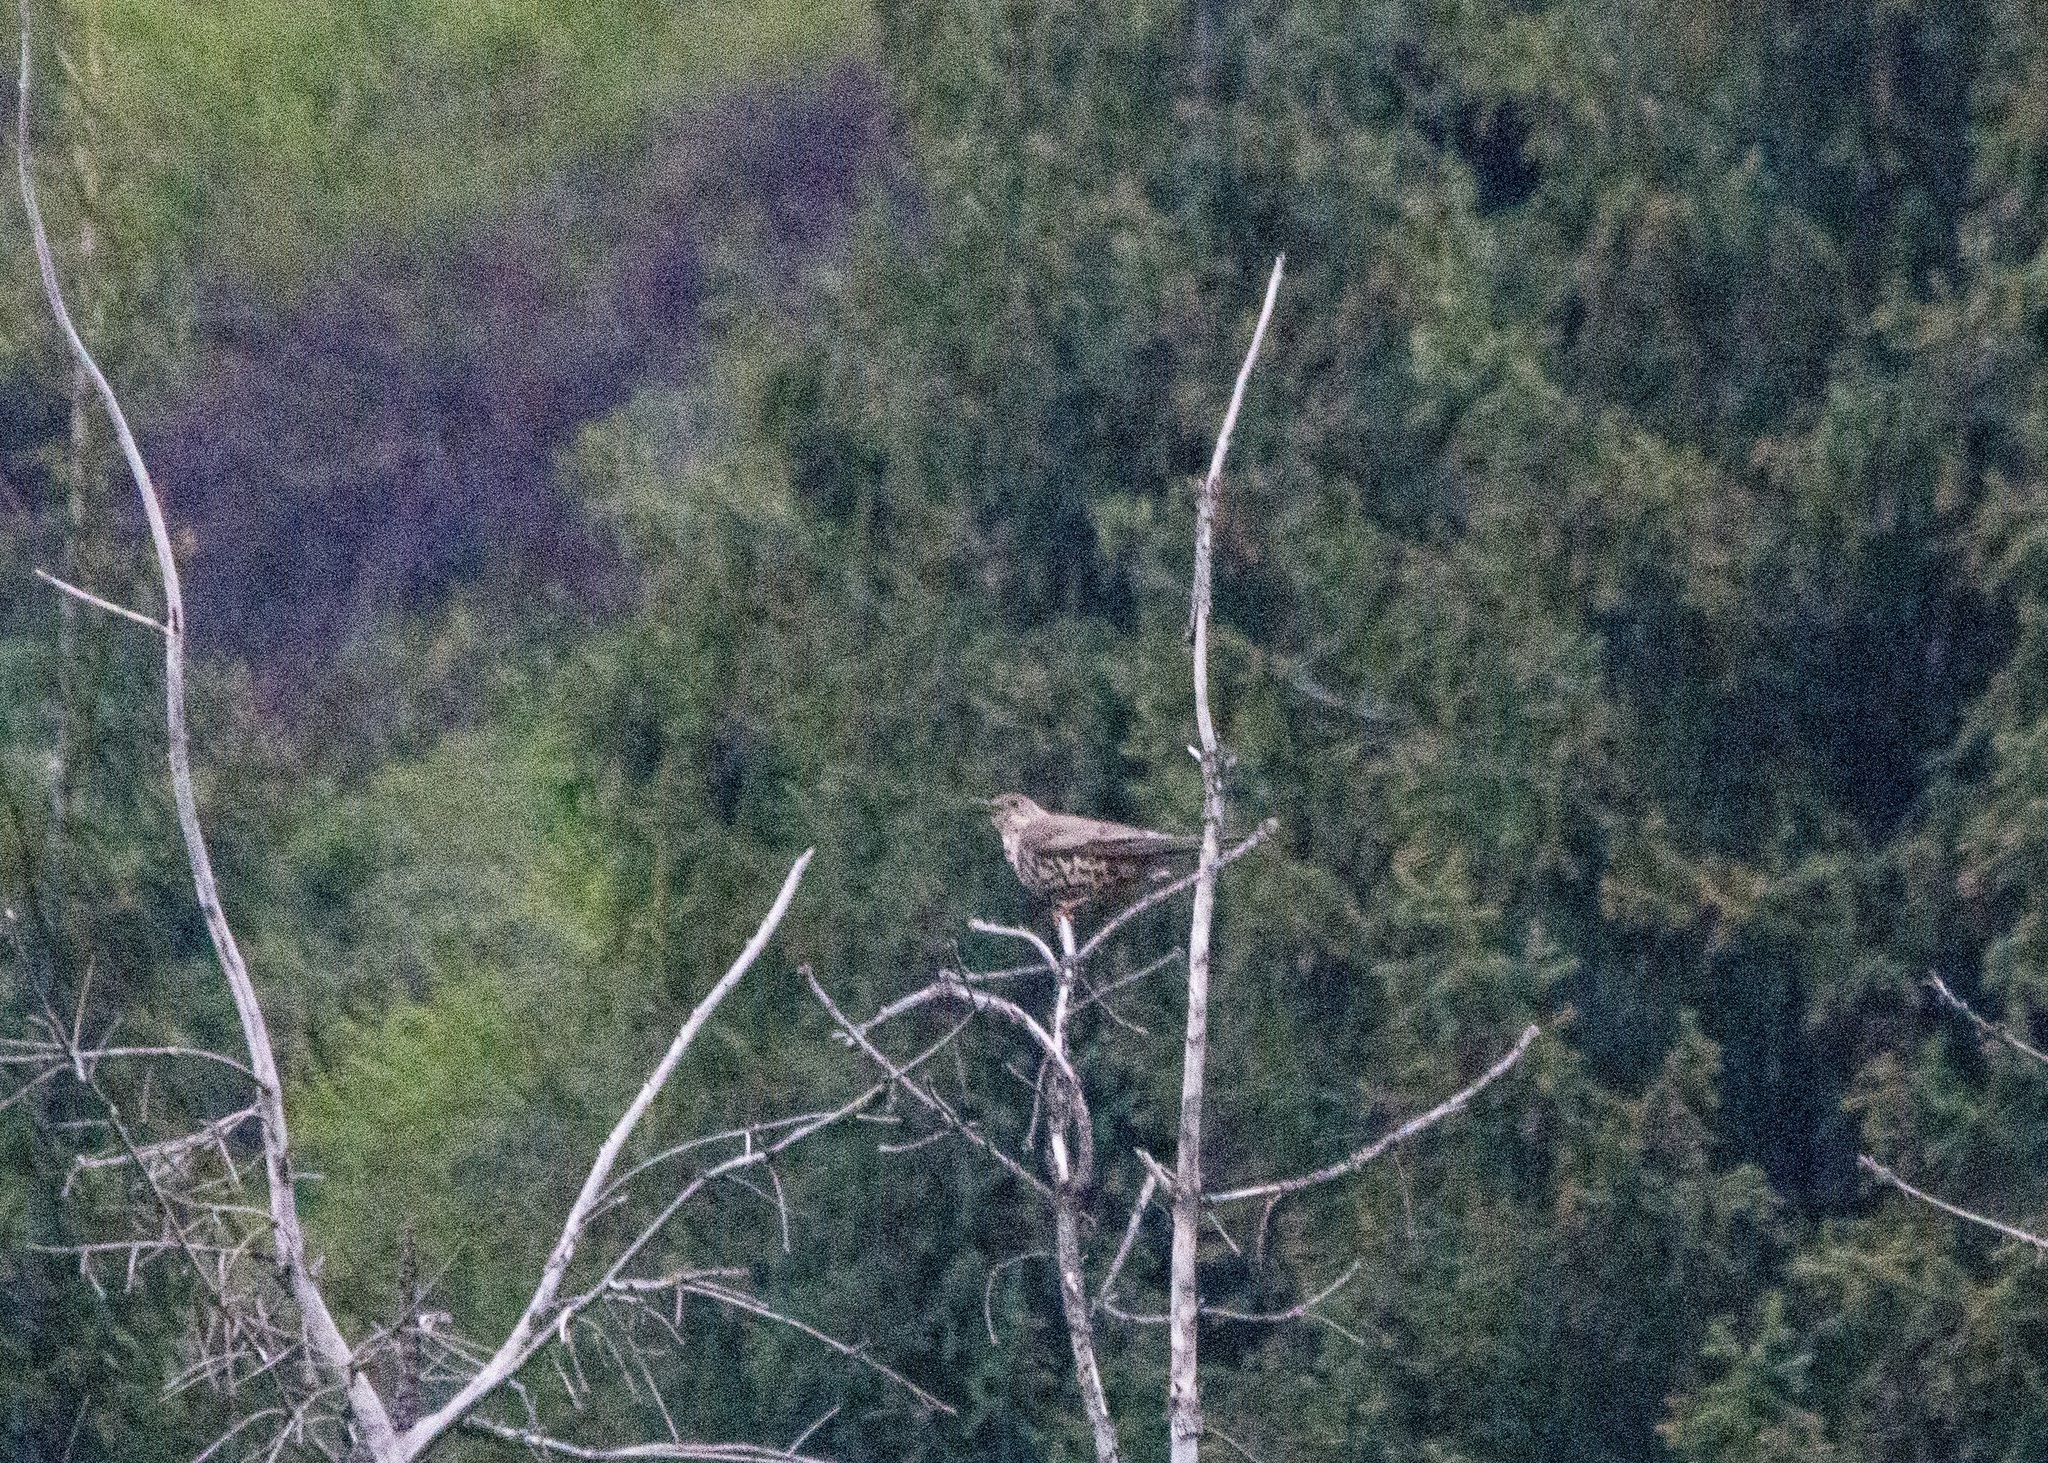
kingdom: Animalia
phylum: Chordata
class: Aves
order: Passeriformes
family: Turdidae
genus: Turdus
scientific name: Turdus viscivorus
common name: Mistle thrush
